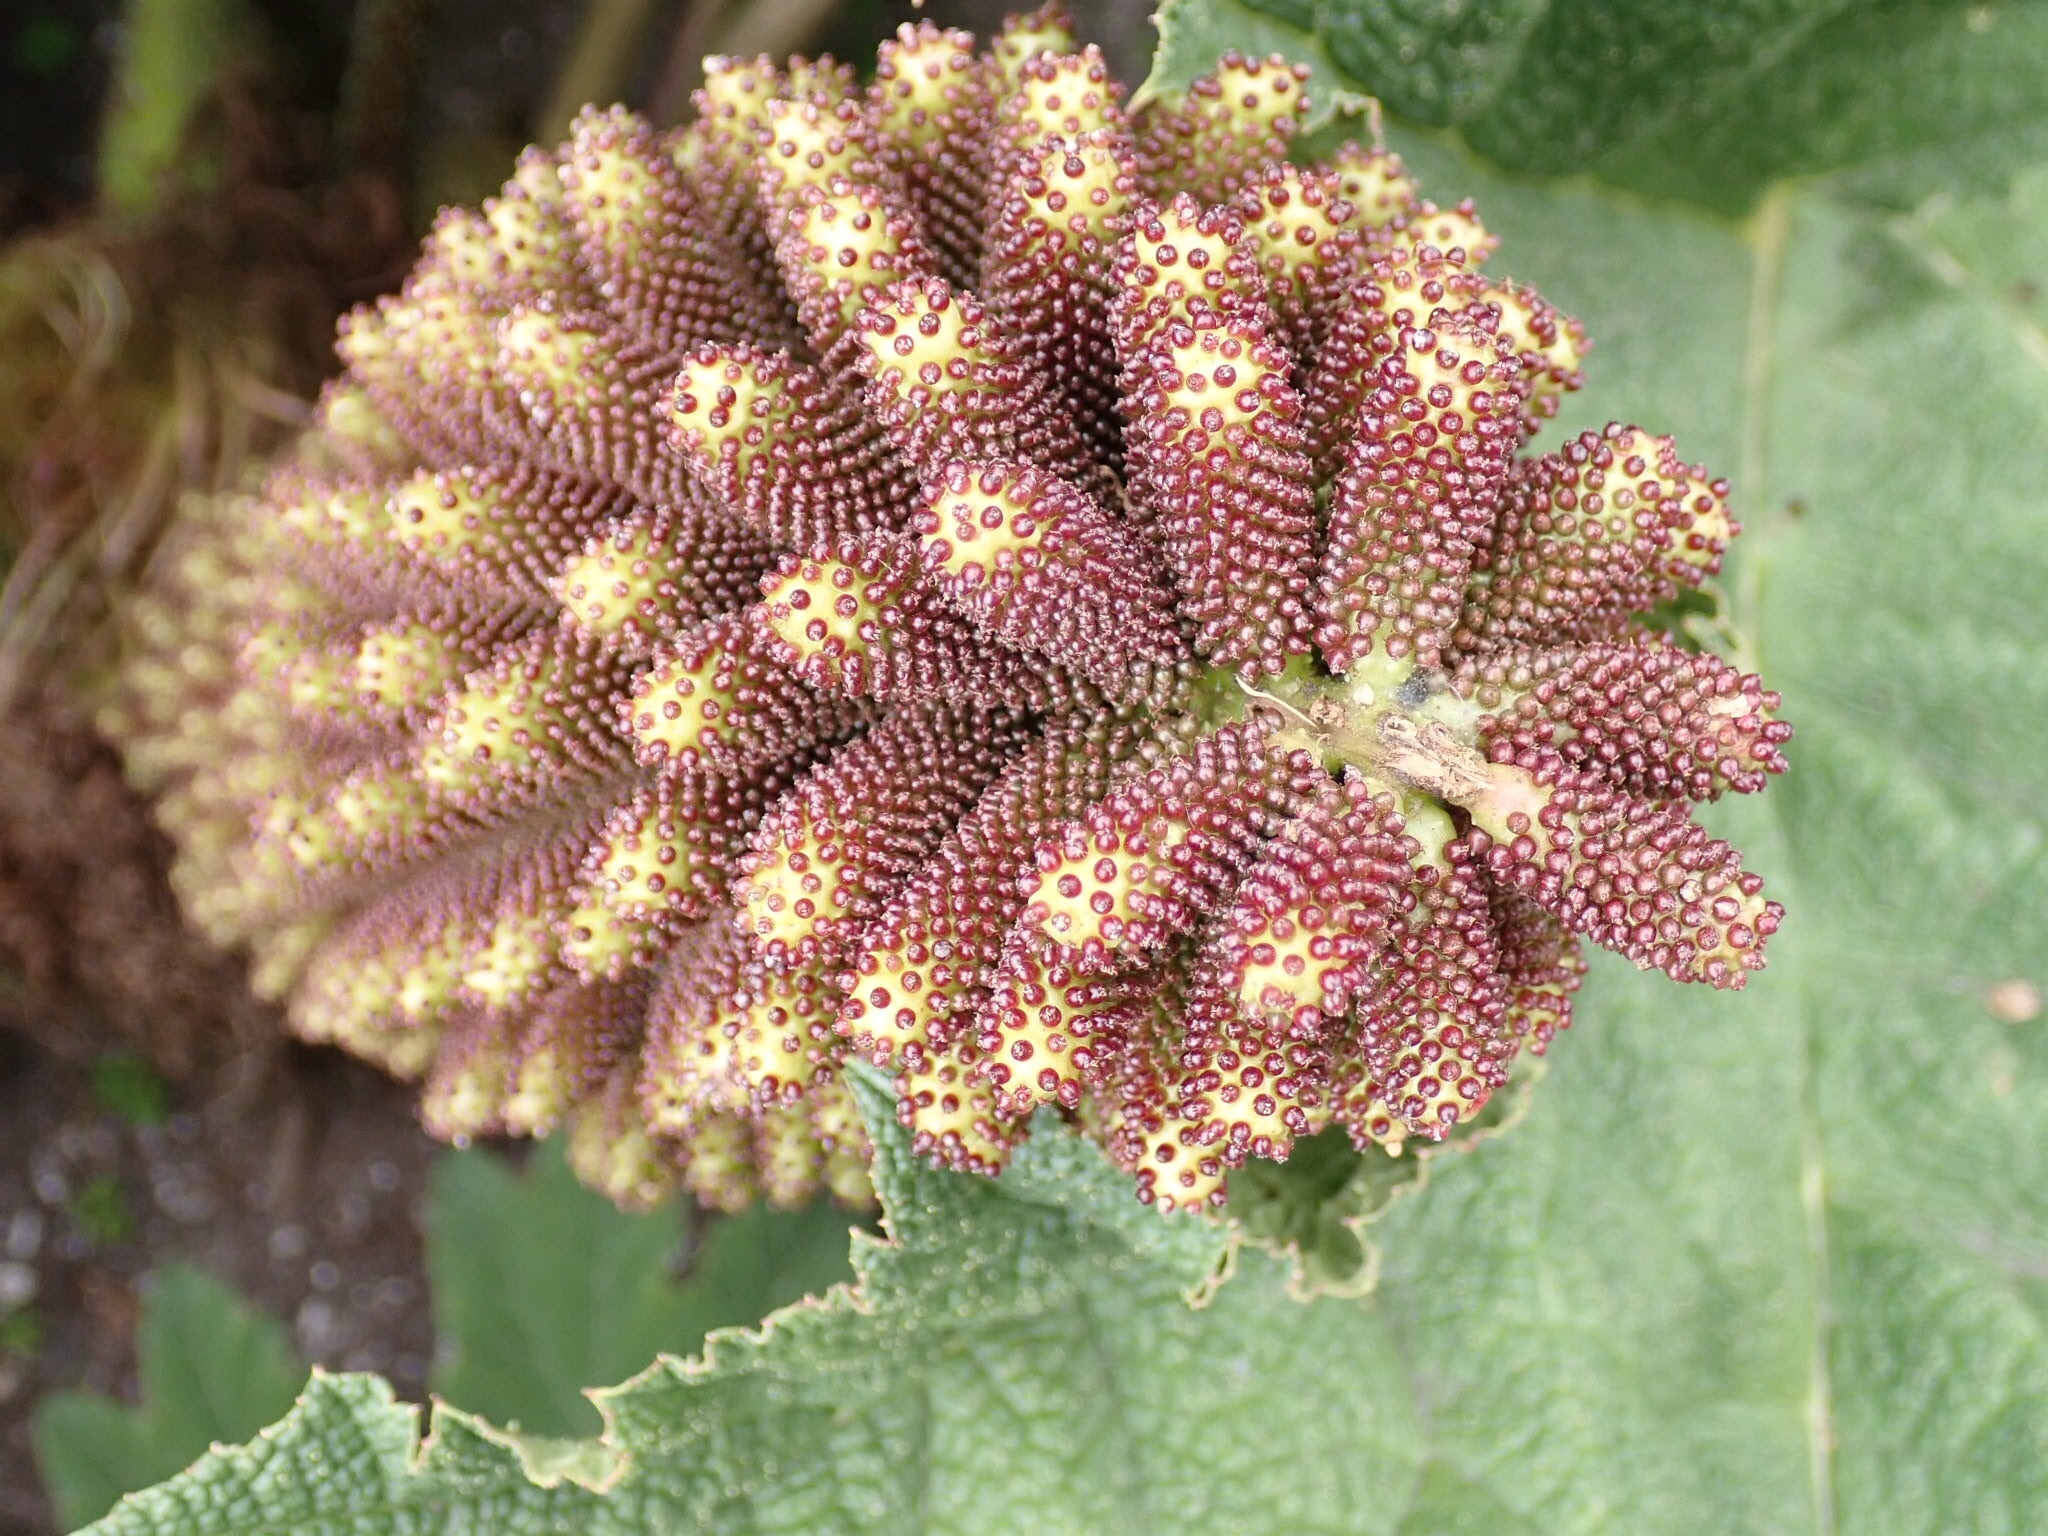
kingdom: Plantae
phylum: Tracheophyta
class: Magnoliopsida
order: Gunnerales
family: Gunneraceae
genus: Gunnera
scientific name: Gunnera tinctoria
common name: Giant-rhubarb
